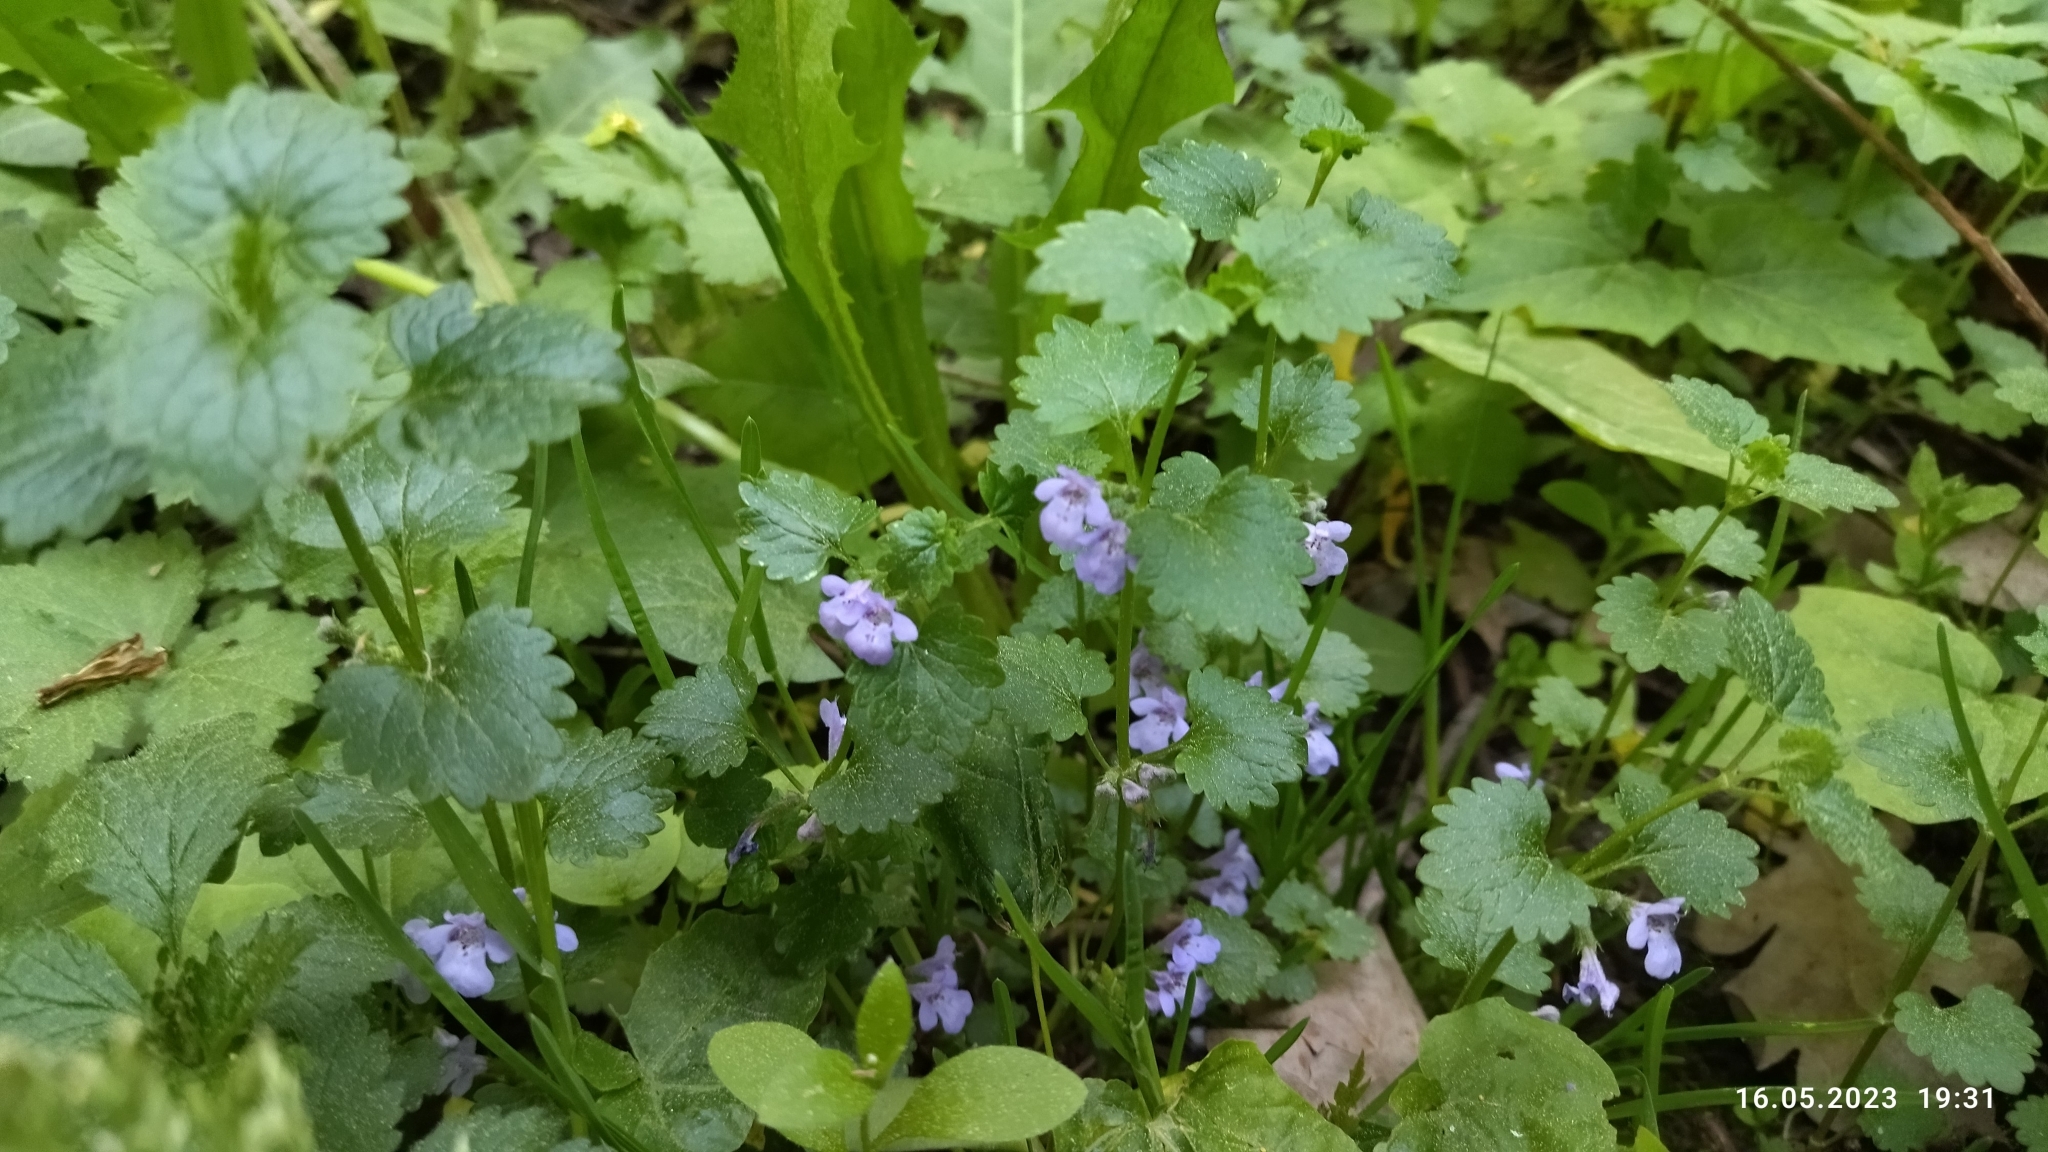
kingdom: Plantae
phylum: Tracheophyta
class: Magnoliopsida
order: Lamiales
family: Lamiaceae
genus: Glechoma
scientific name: Glechoma hederacea
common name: Ground ivy
